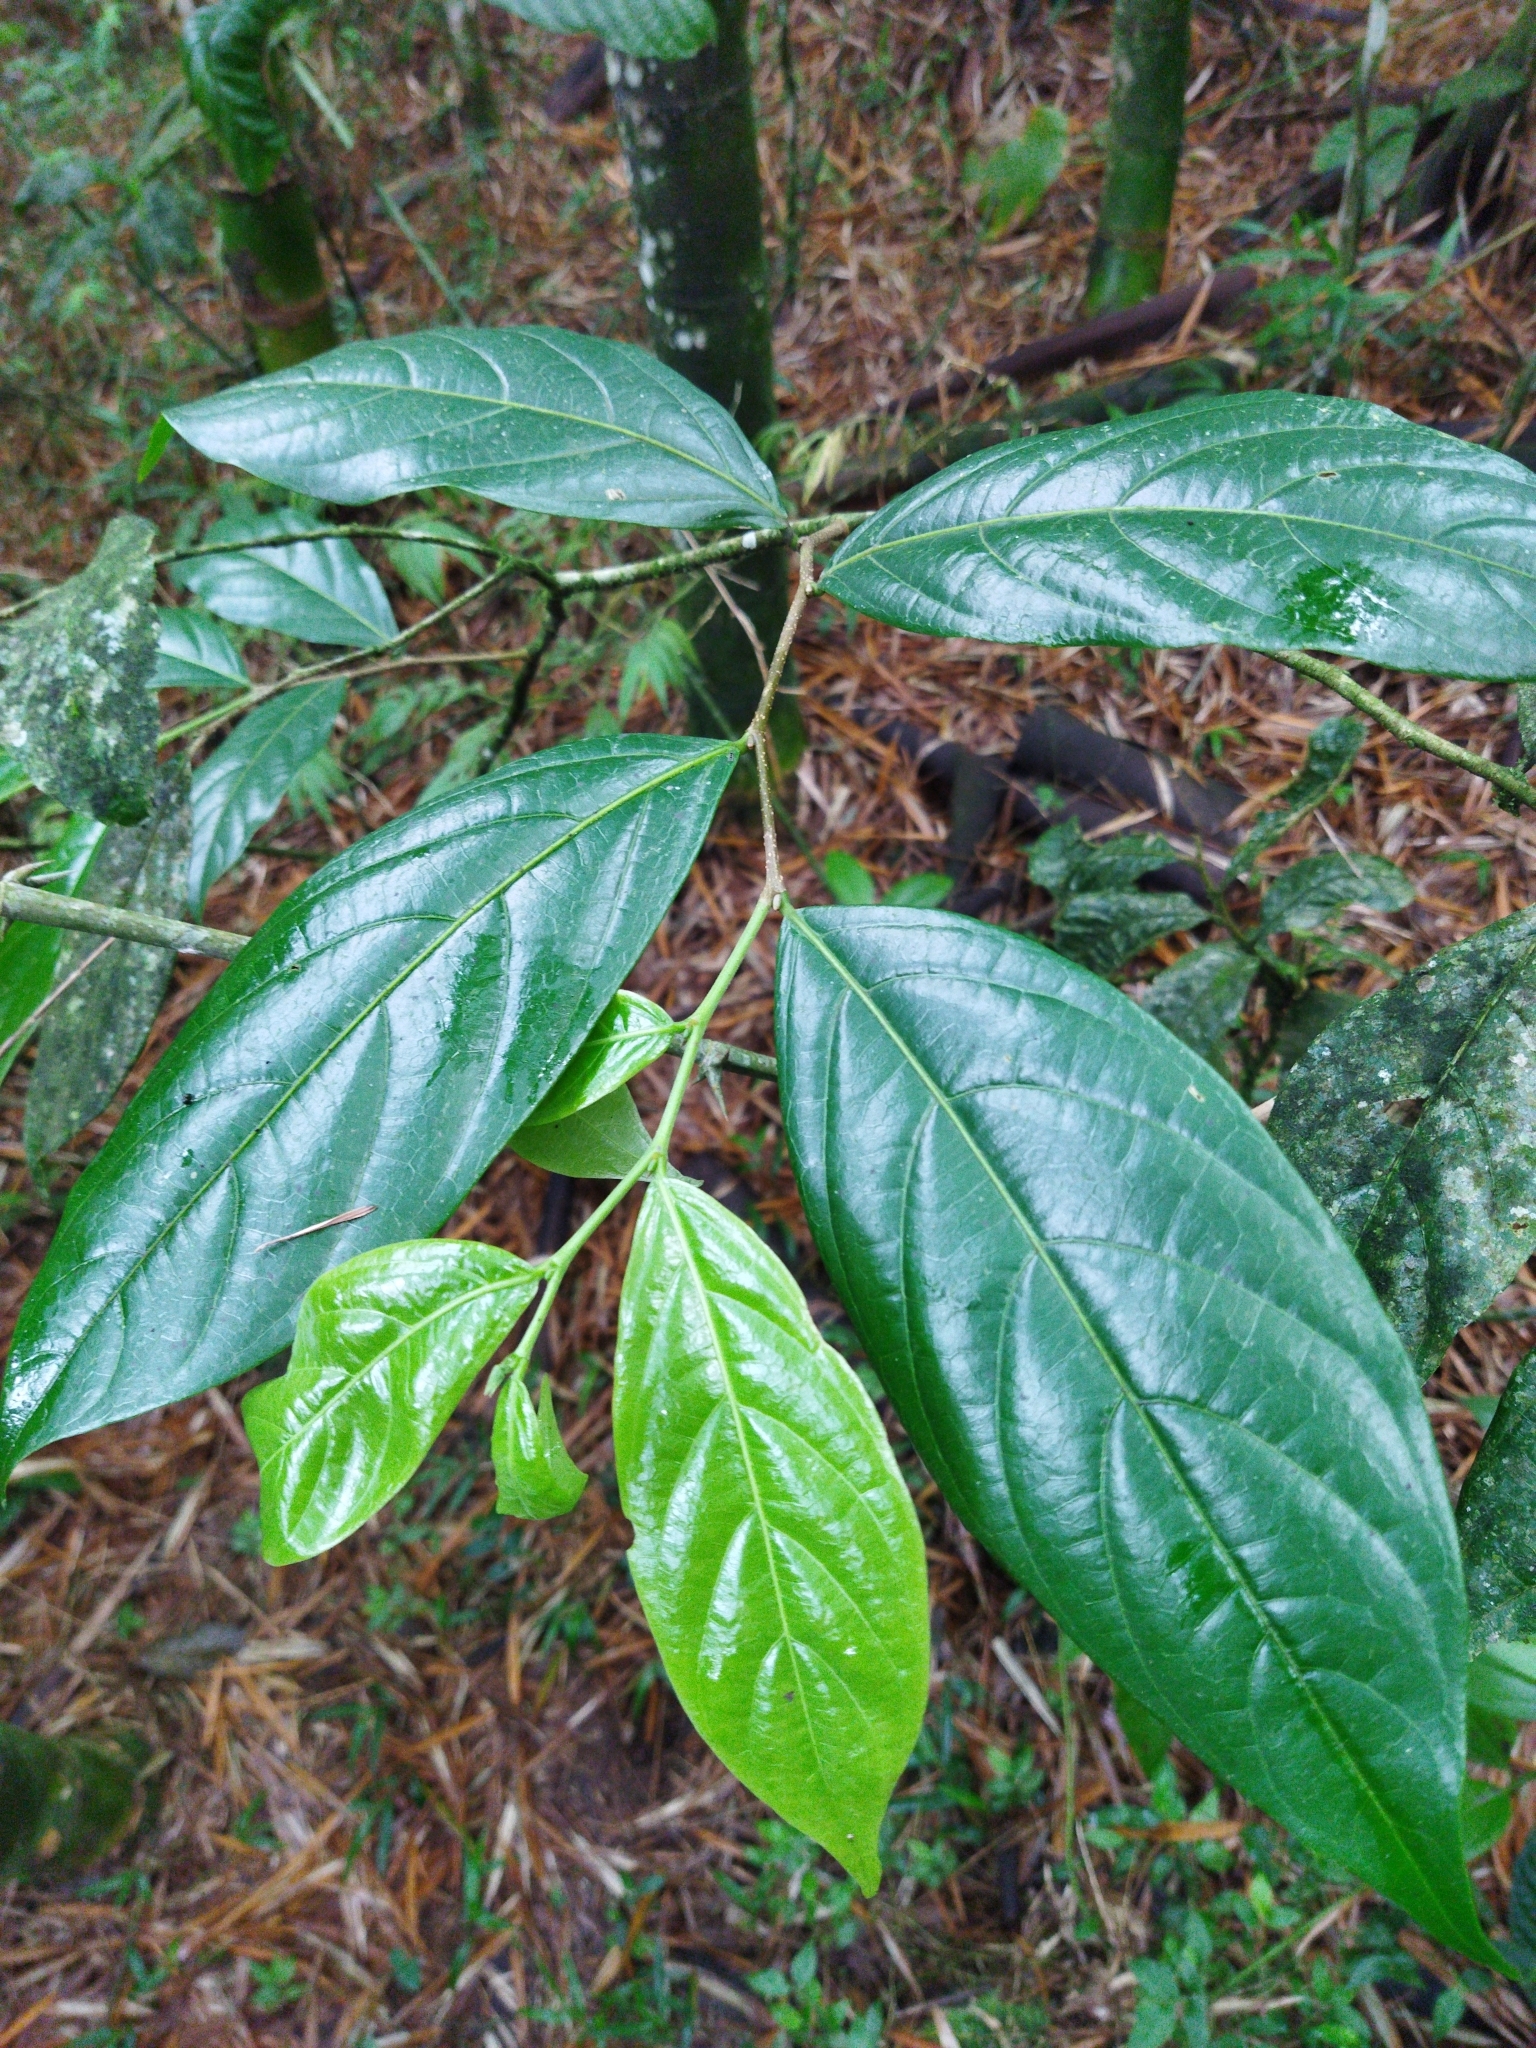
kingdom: Plantae
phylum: Tracheophyta
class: Magnoliopsida
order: Rosales
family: Cannabaceae
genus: Ampelocera
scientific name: Ampelocera albertiae
